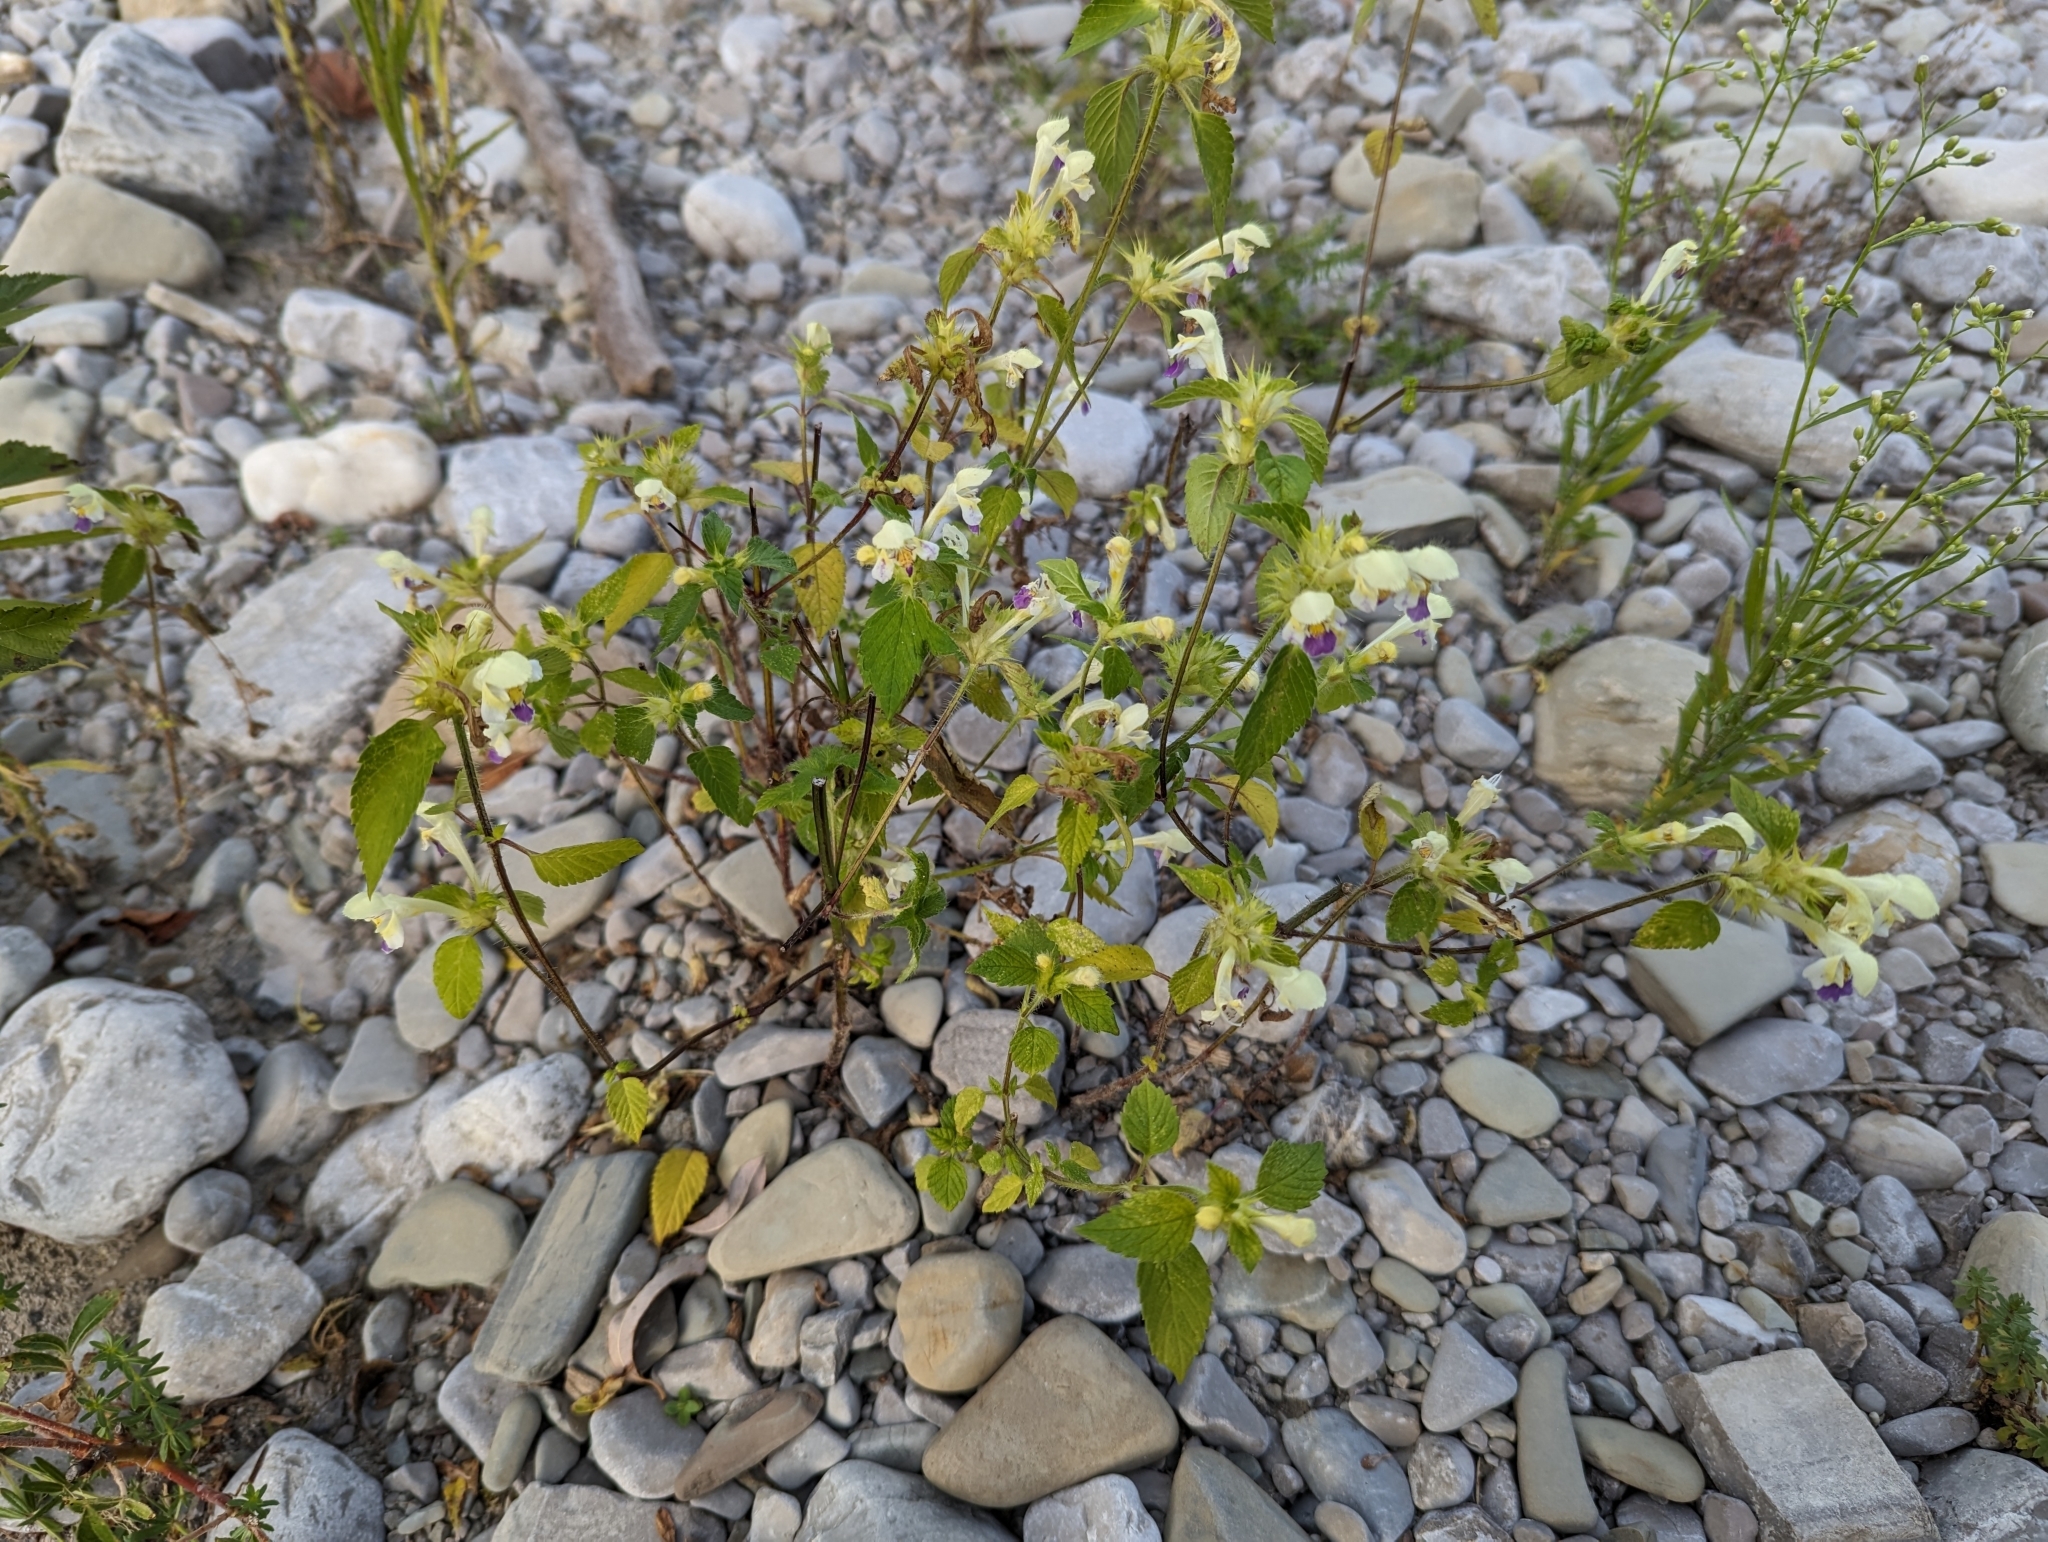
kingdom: Plantae
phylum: Tracheophyta
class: Magnoliopsida
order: Lamiales
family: Lamiaceae
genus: Galeopsis
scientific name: Galeopsis speciosa
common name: Large-flowered hemp-nettle
